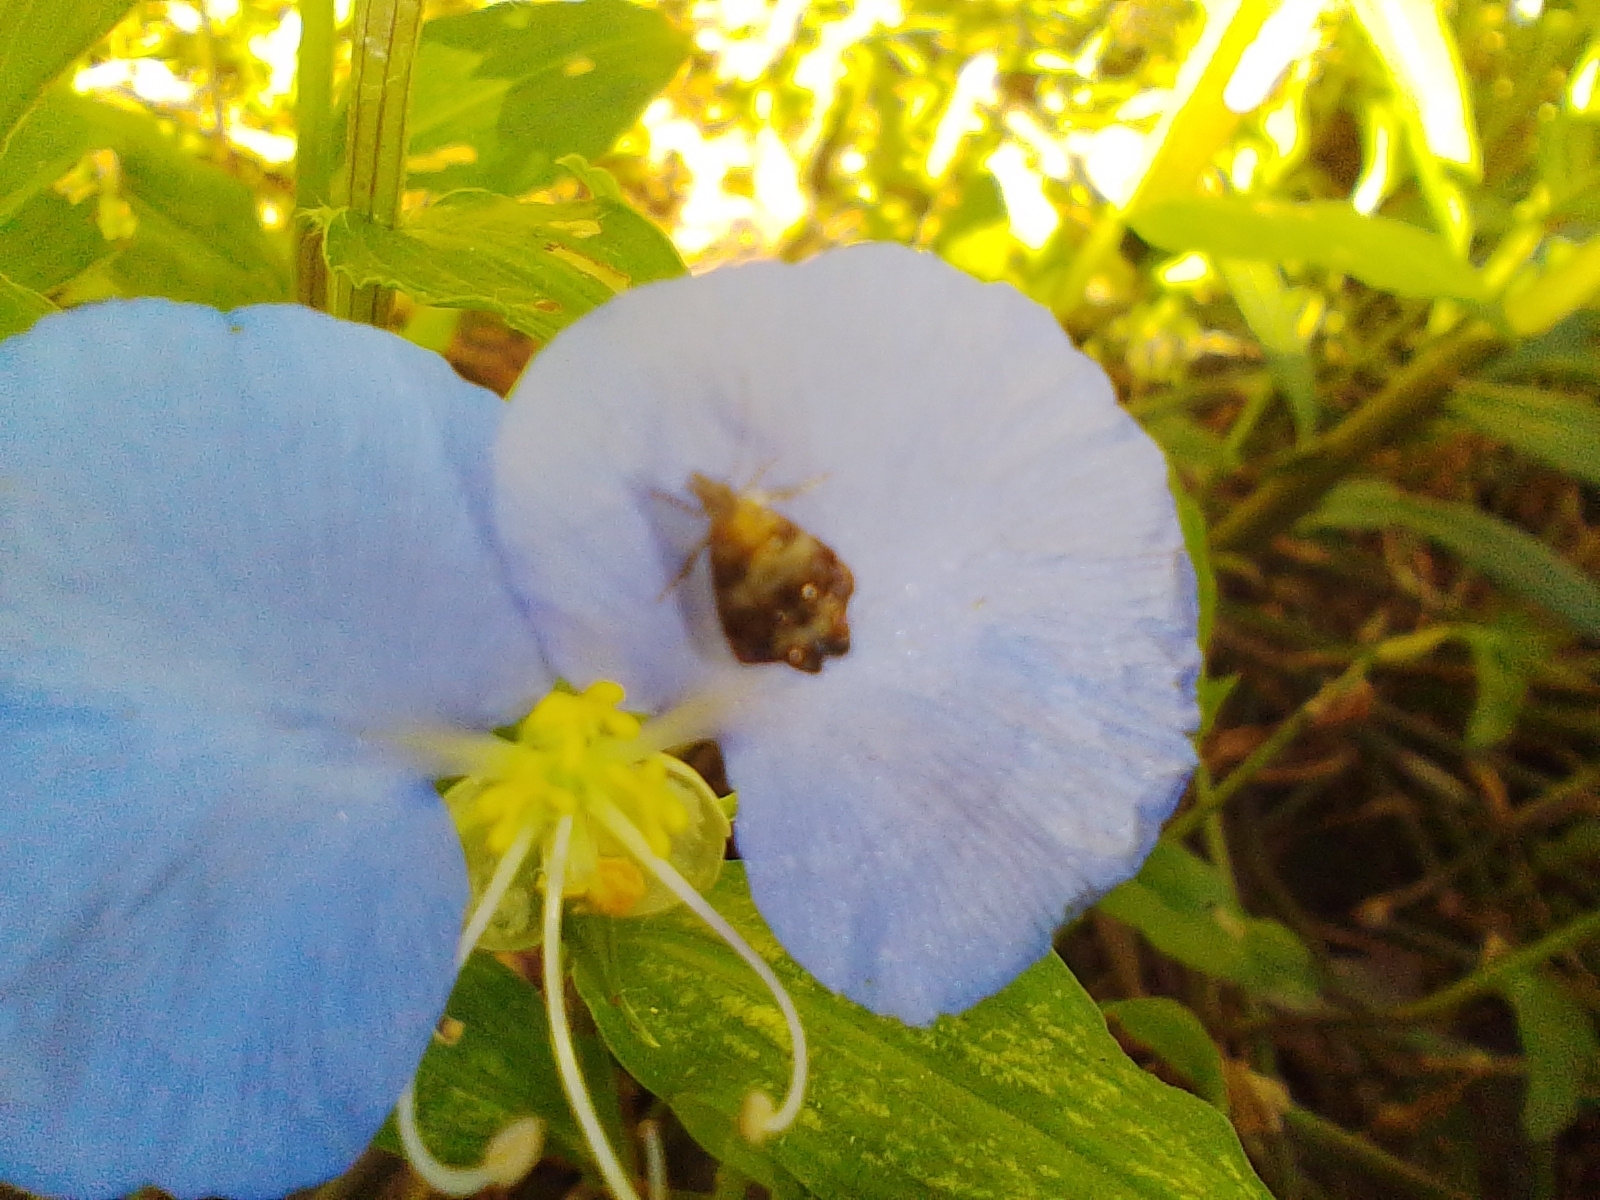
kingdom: Plantae
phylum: Tracheophyta
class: Liliopsida
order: Commelinales
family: Commelinaceae
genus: Commelina
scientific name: Commelina erecta
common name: Blousel blommetjie
